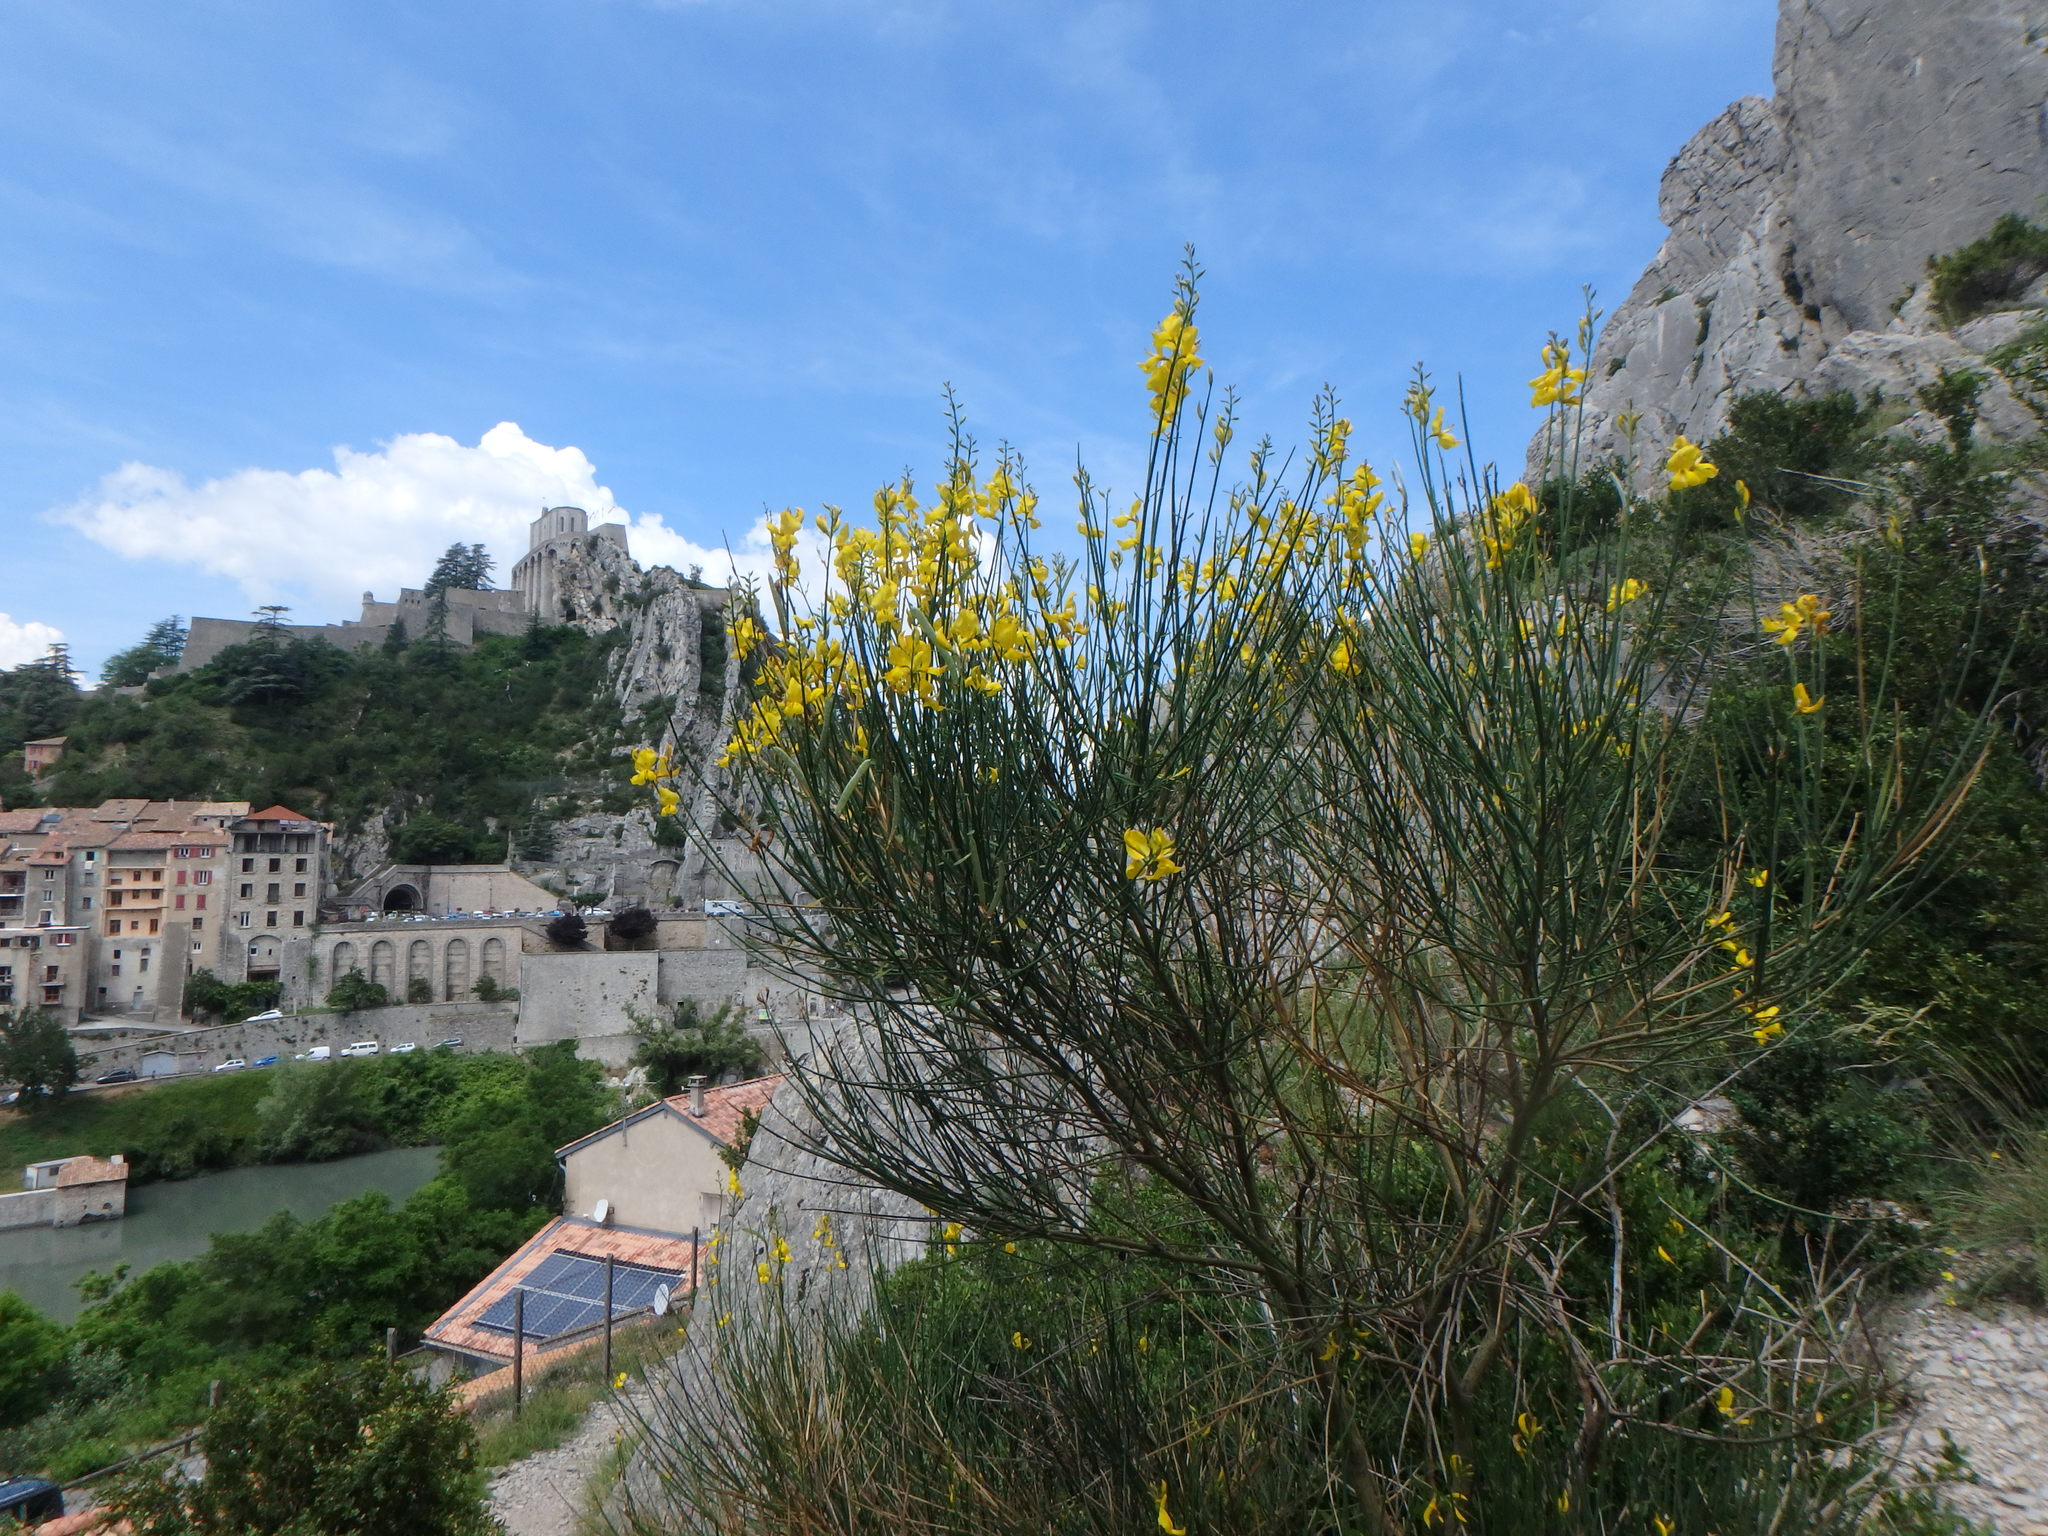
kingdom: Plantae
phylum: Tracheophyta
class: Magnoliopsida
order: Fabales
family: Fabaceae
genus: Spartium
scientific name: Spartium junceum
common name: Spanish broom
